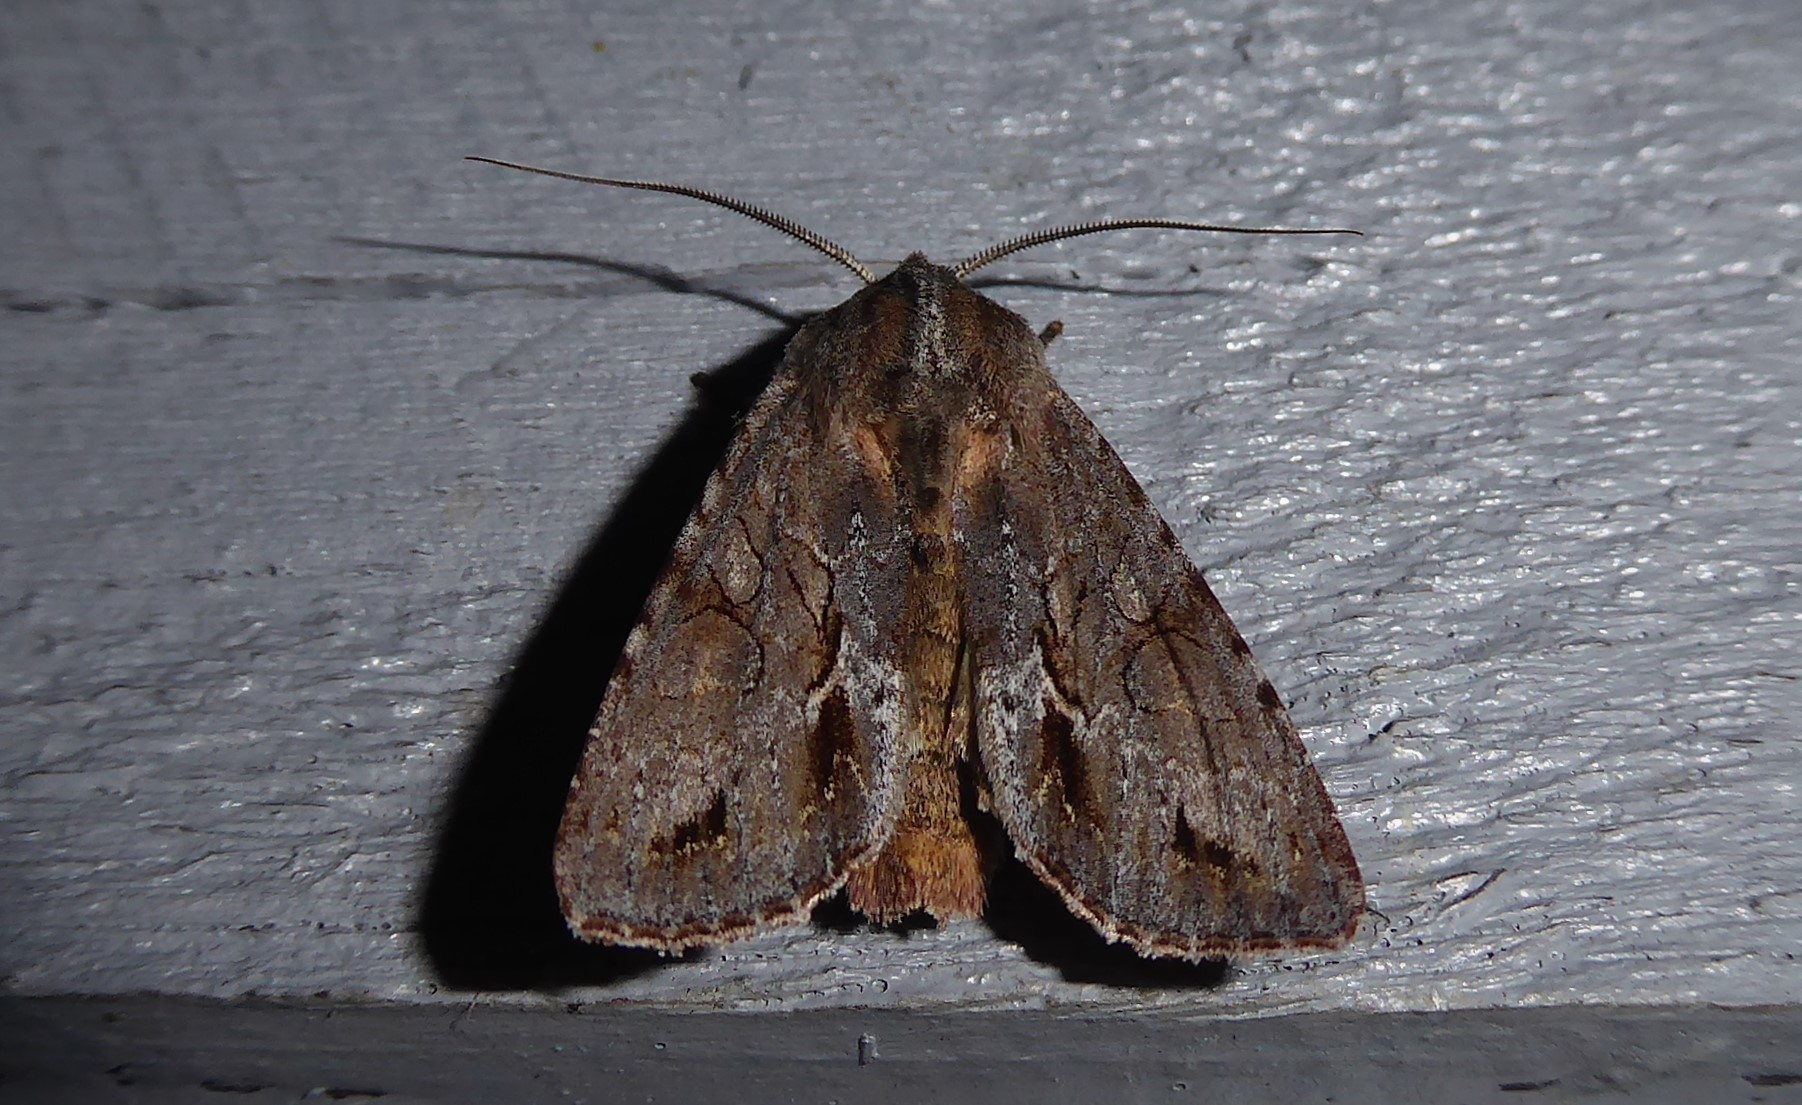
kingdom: Animalia
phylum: Arthropoda
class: Insecta
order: Lepidoptera
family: Noctuidae
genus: Ichneutica
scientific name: Ichneutica
